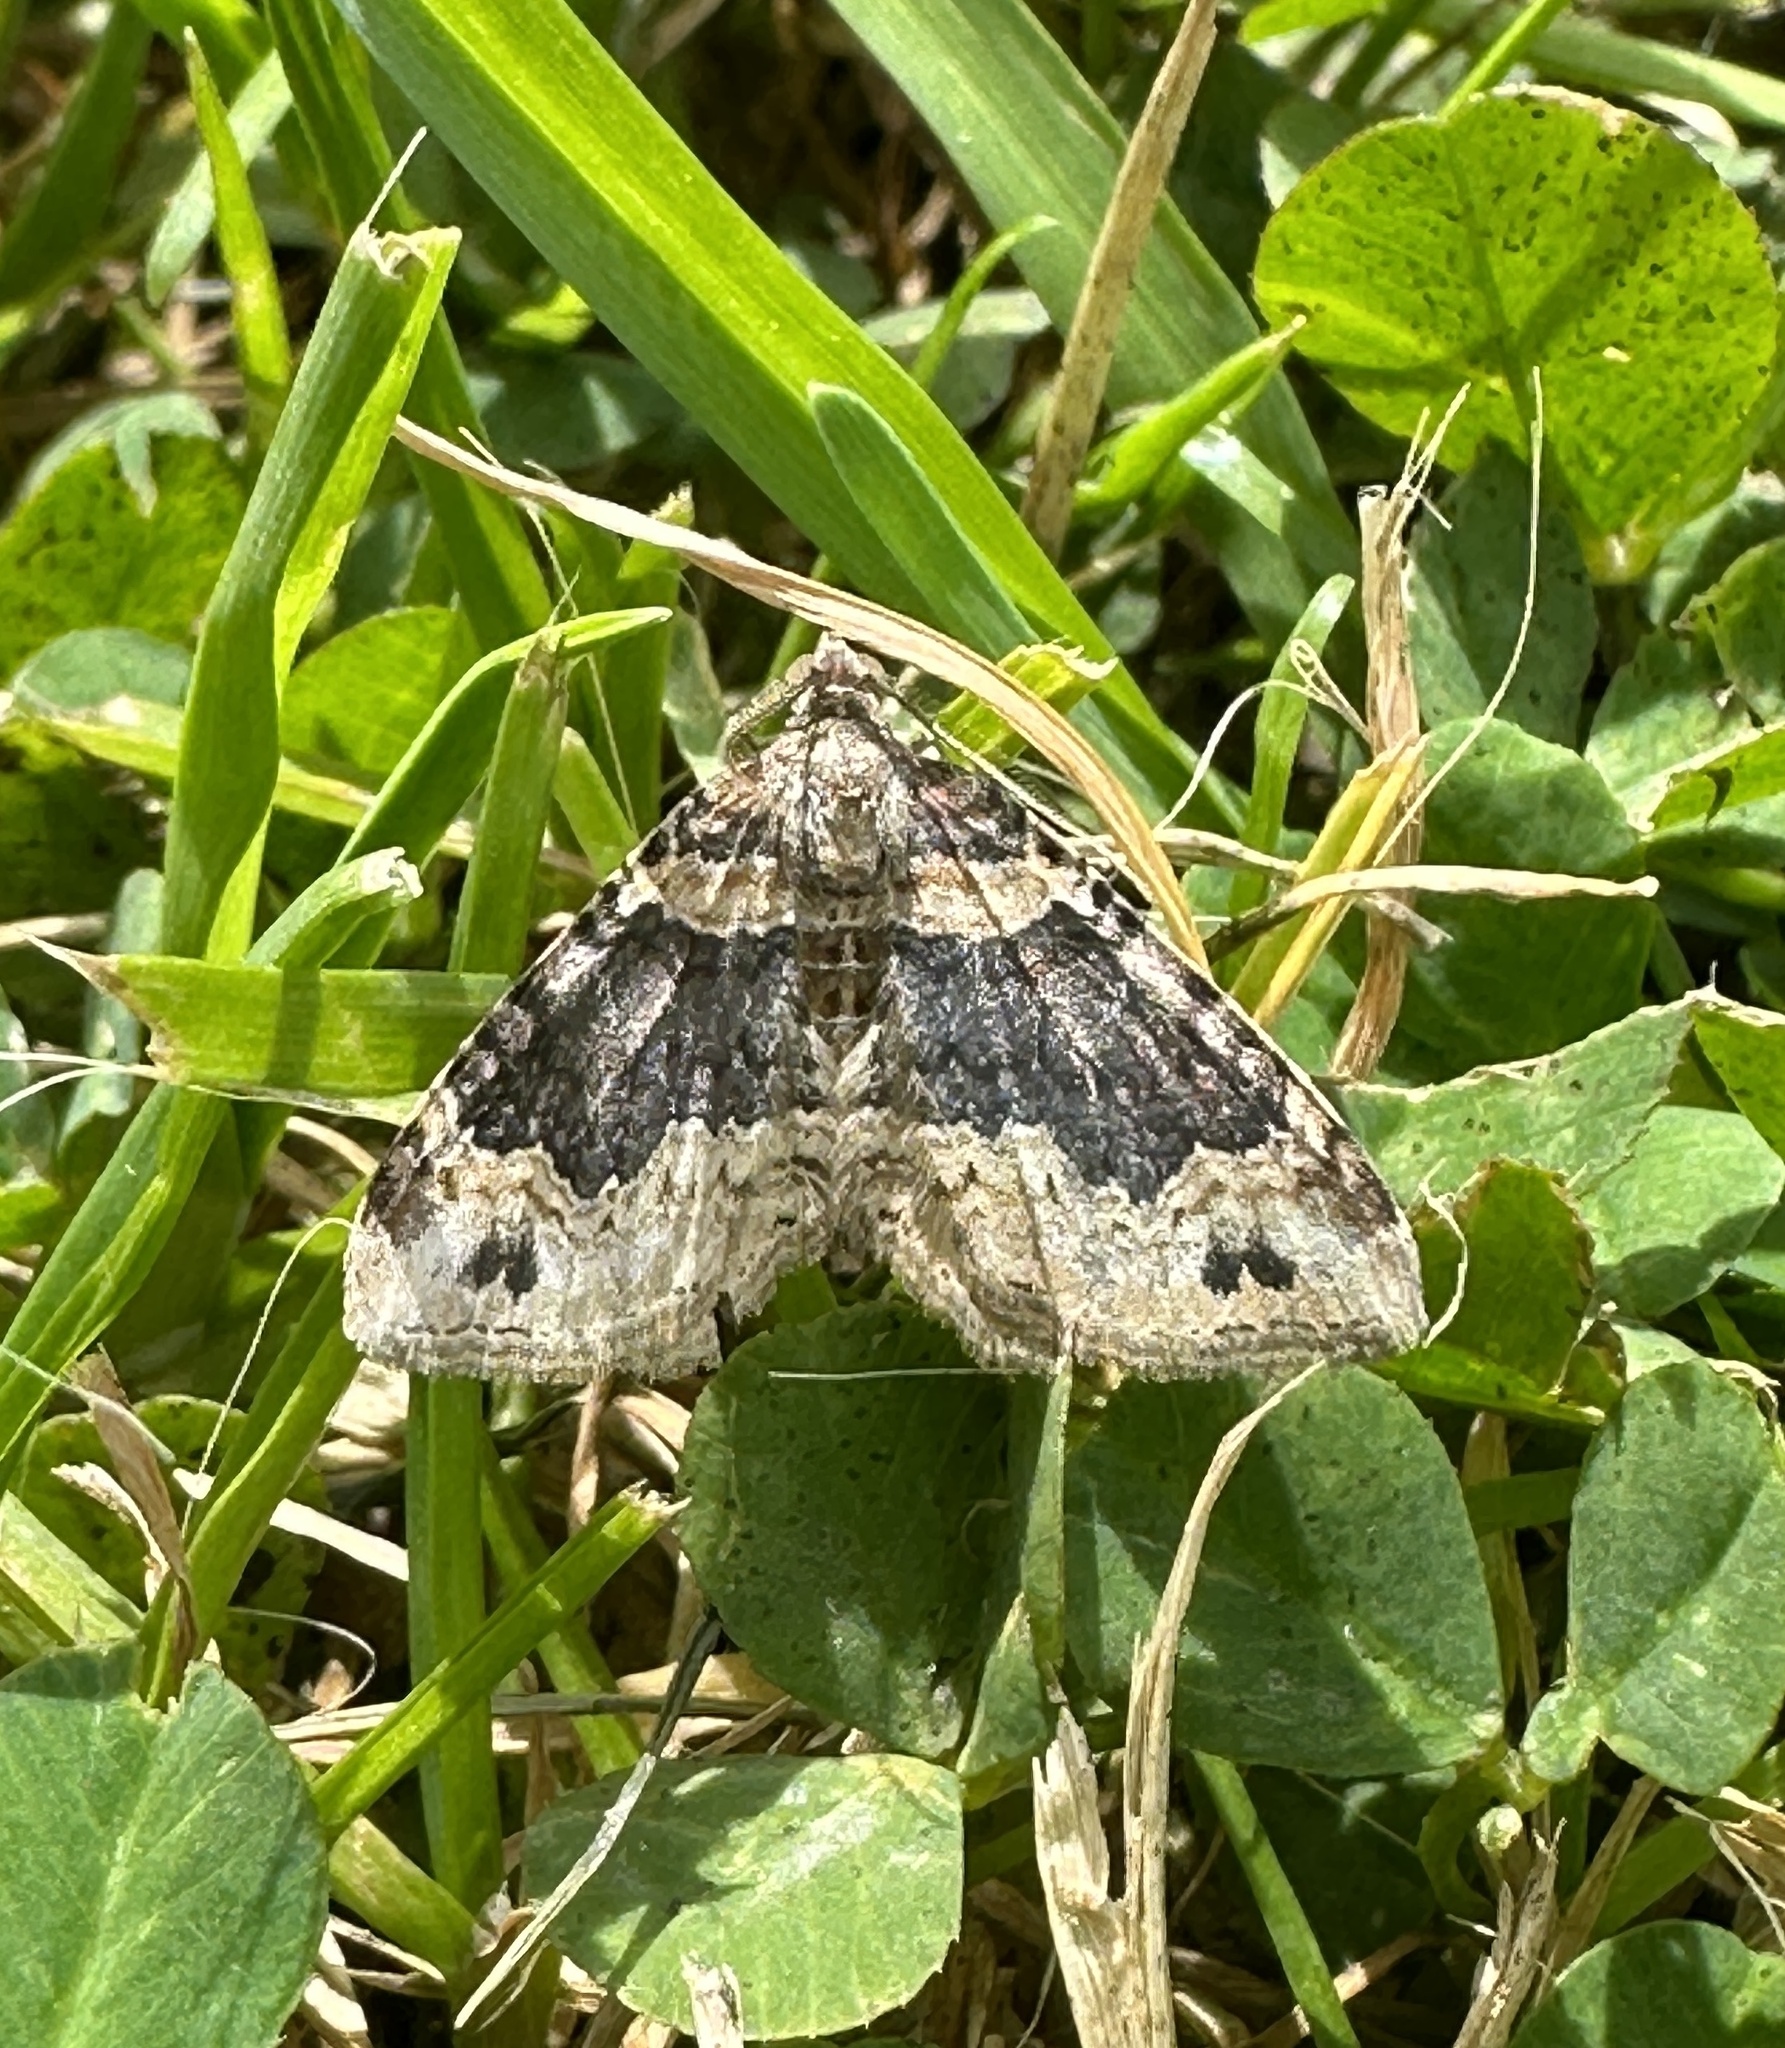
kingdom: Animalia
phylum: Arthropoda
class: Insecta
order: Lepidoptera
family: Geometridae
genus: Xanthorhoe
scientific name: Xanthorhoe ferrugata
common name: Dark-barred twin-spot carpet
